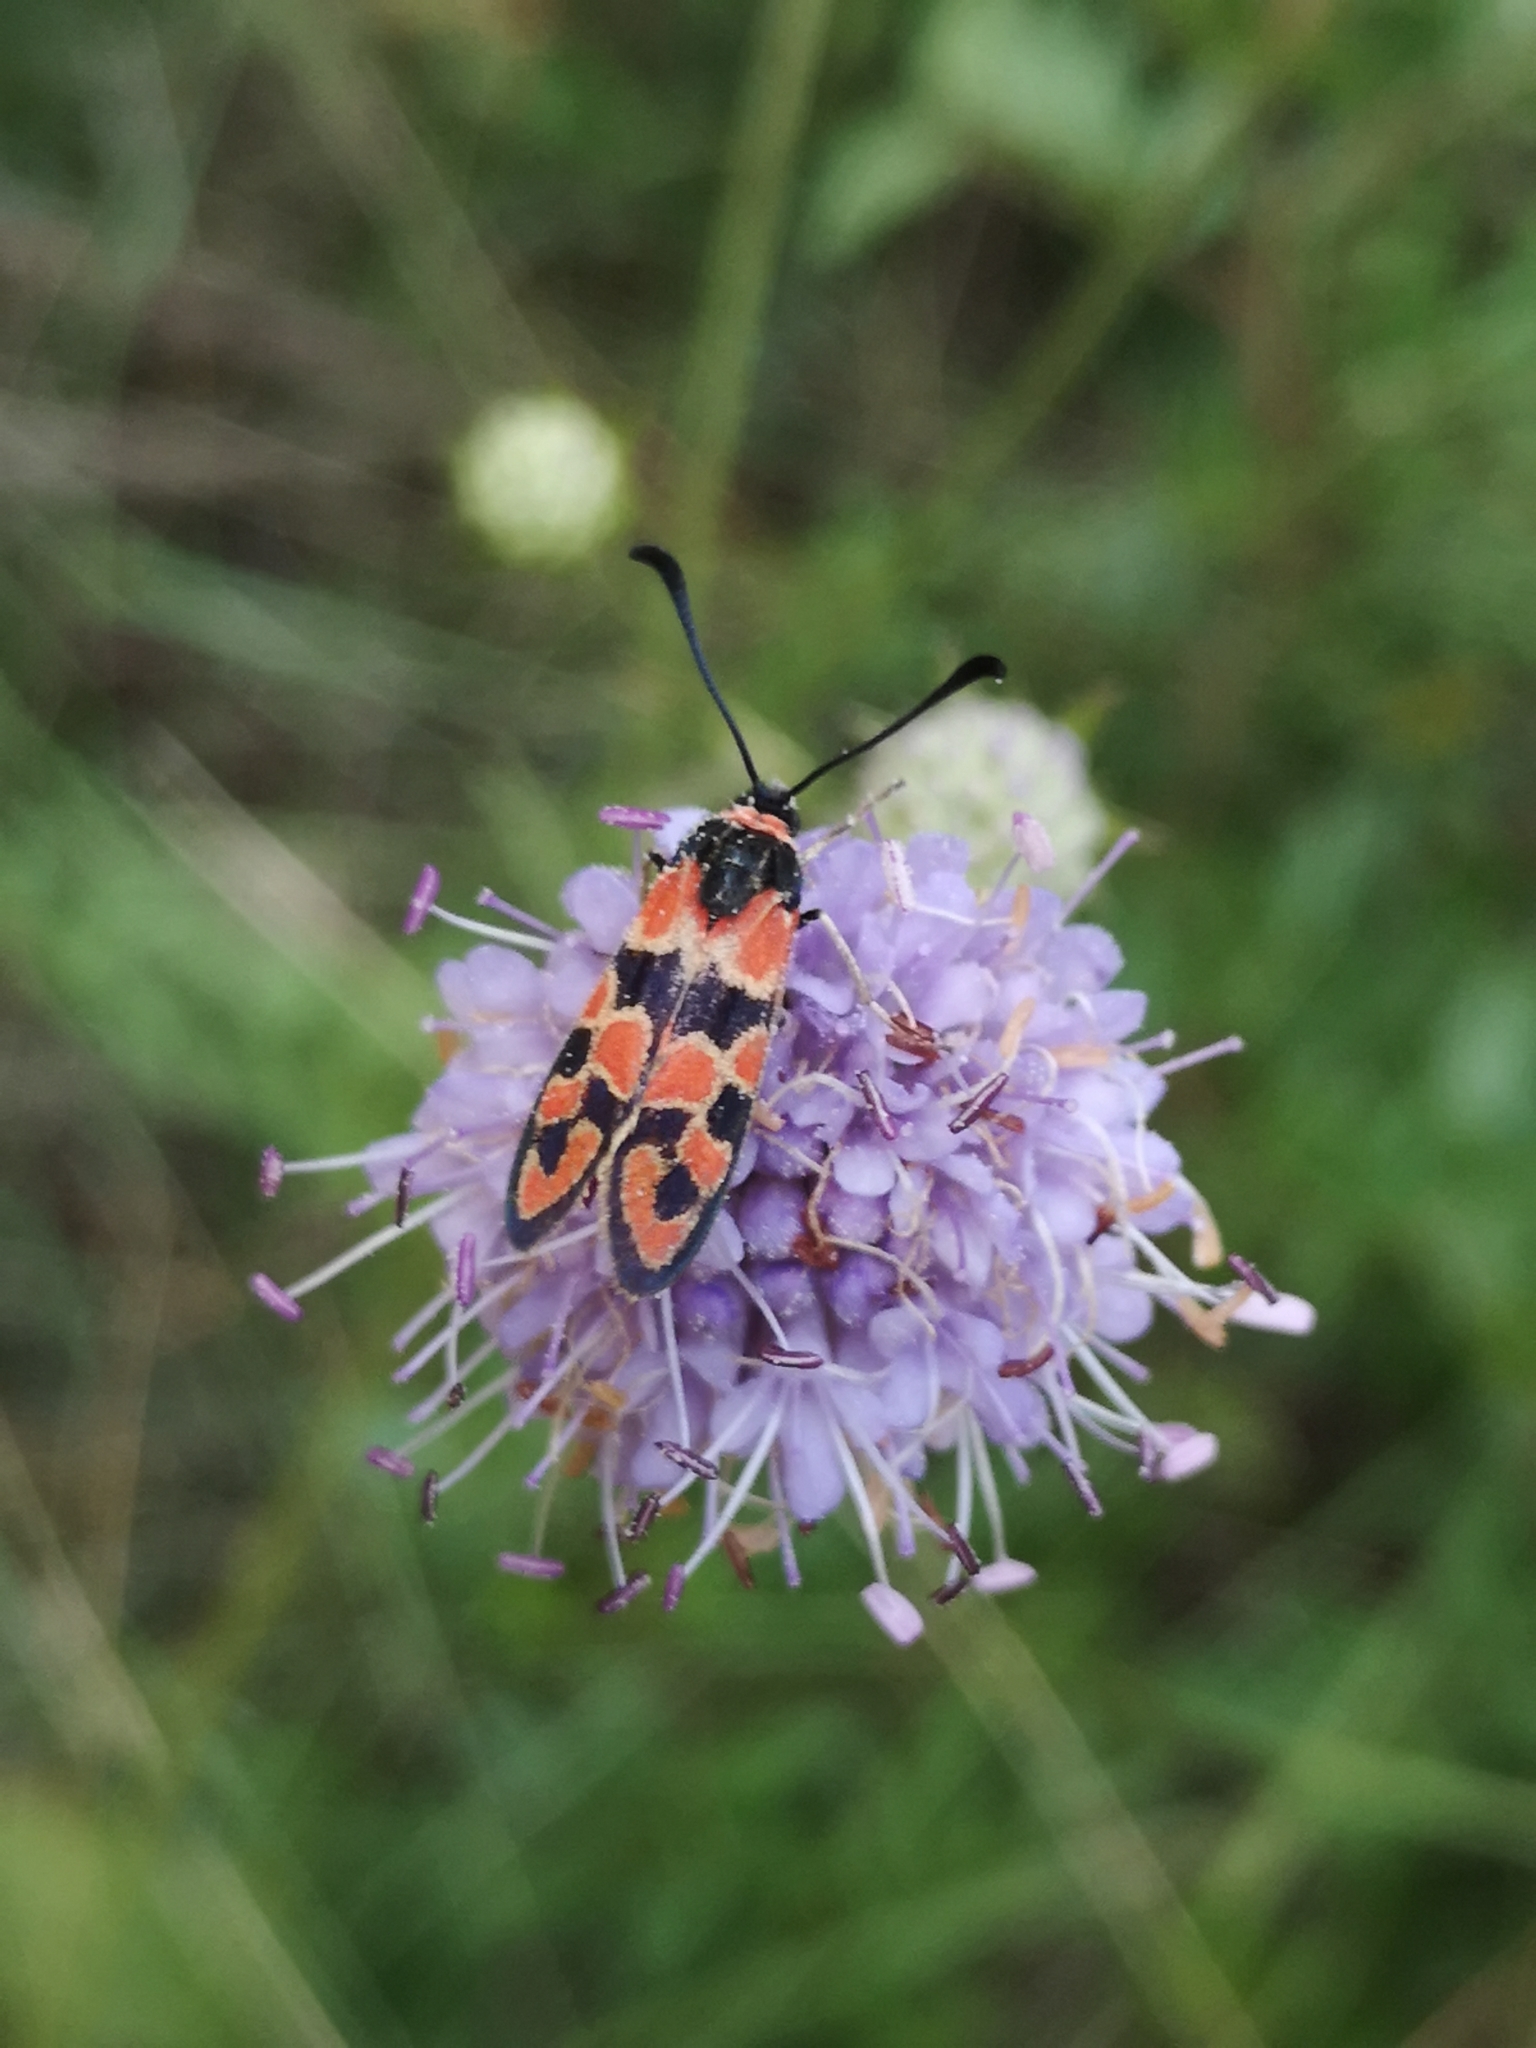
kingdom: Animalia
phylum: Arthropoda
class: Insecta
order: Lepidoptera
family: Zygaenidae
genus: Zygaena
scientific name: Zygaena fausta
